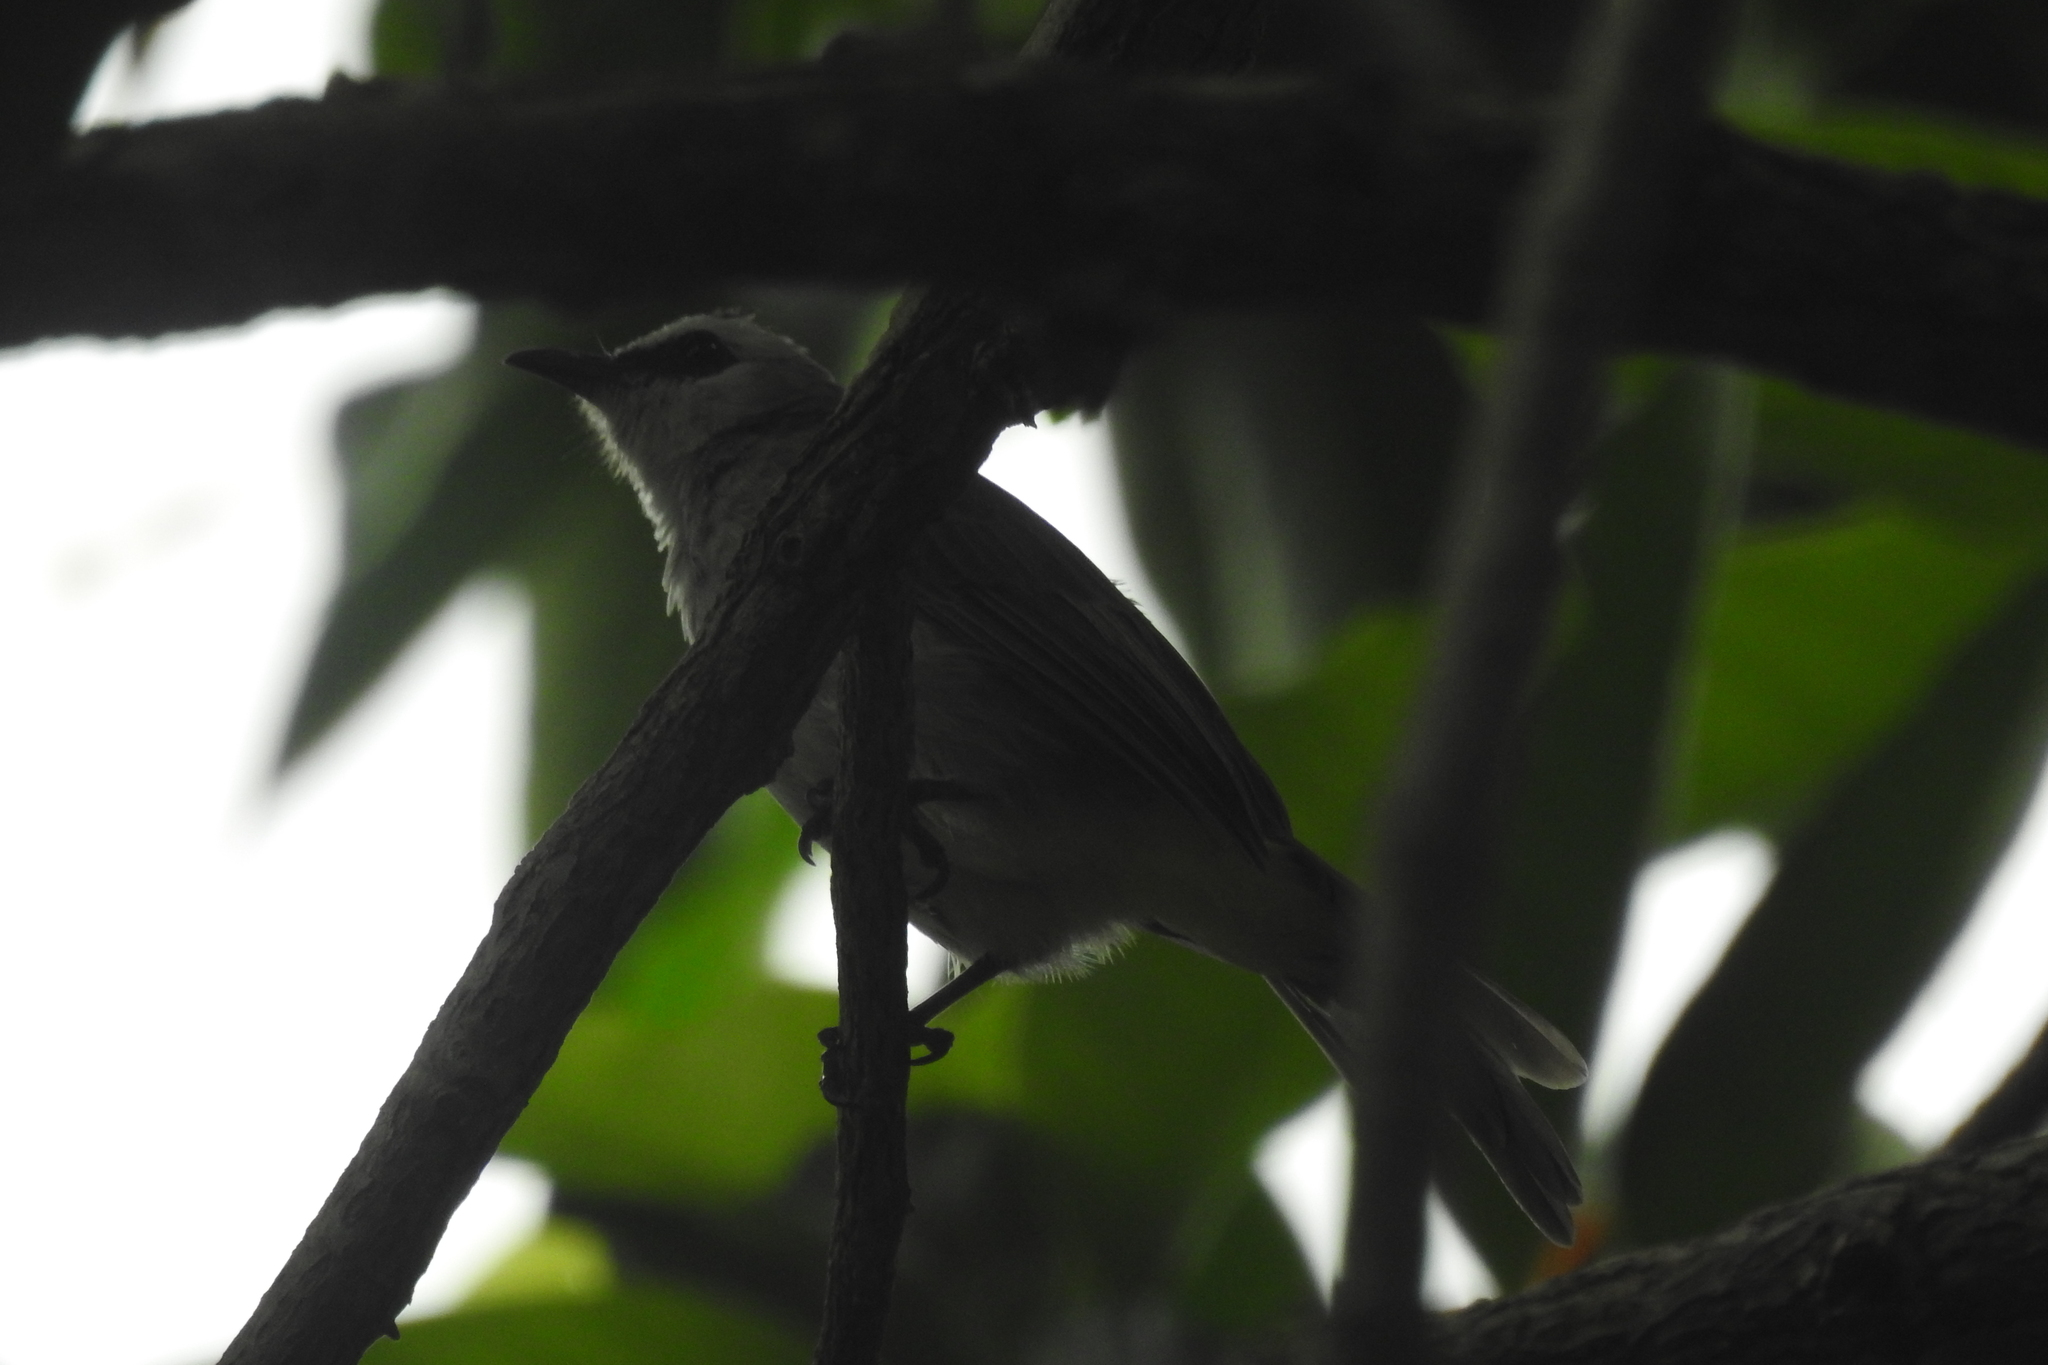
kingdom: Animalia
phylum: Chordata
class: Aves
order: Passeriformes
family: Pycnonotidae
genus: Pycnonotus
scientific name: Pycnonotus goiavier
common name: Yellow-vented bulbul
